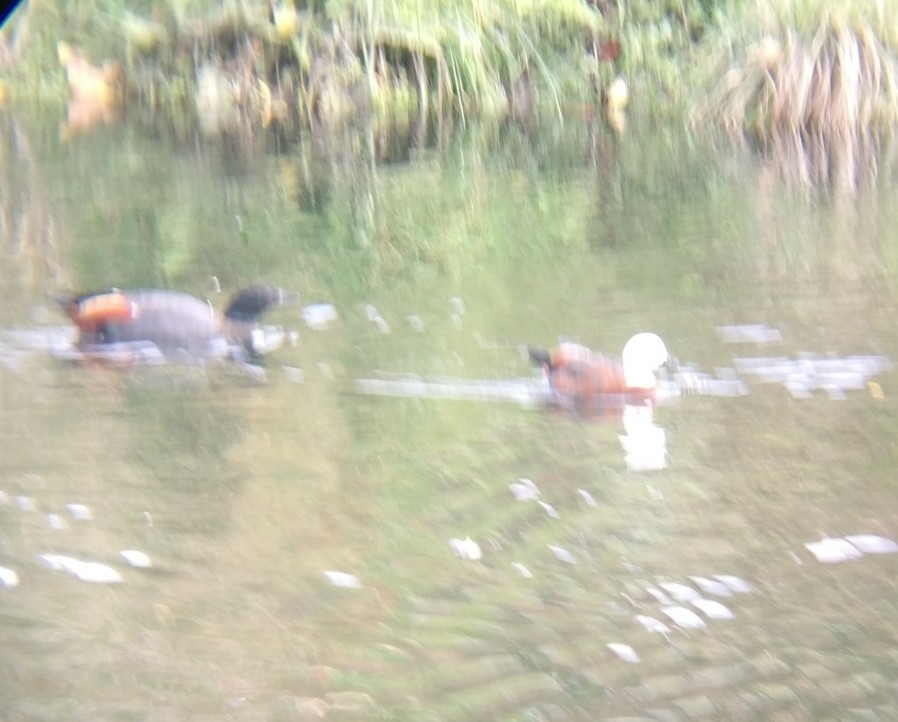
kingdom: Animalia
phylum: Chordata
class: Aves
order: Anseriformes
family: Anatidae
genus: Tadorna
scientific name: Tadorna variegata
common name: Paradise shelduck
